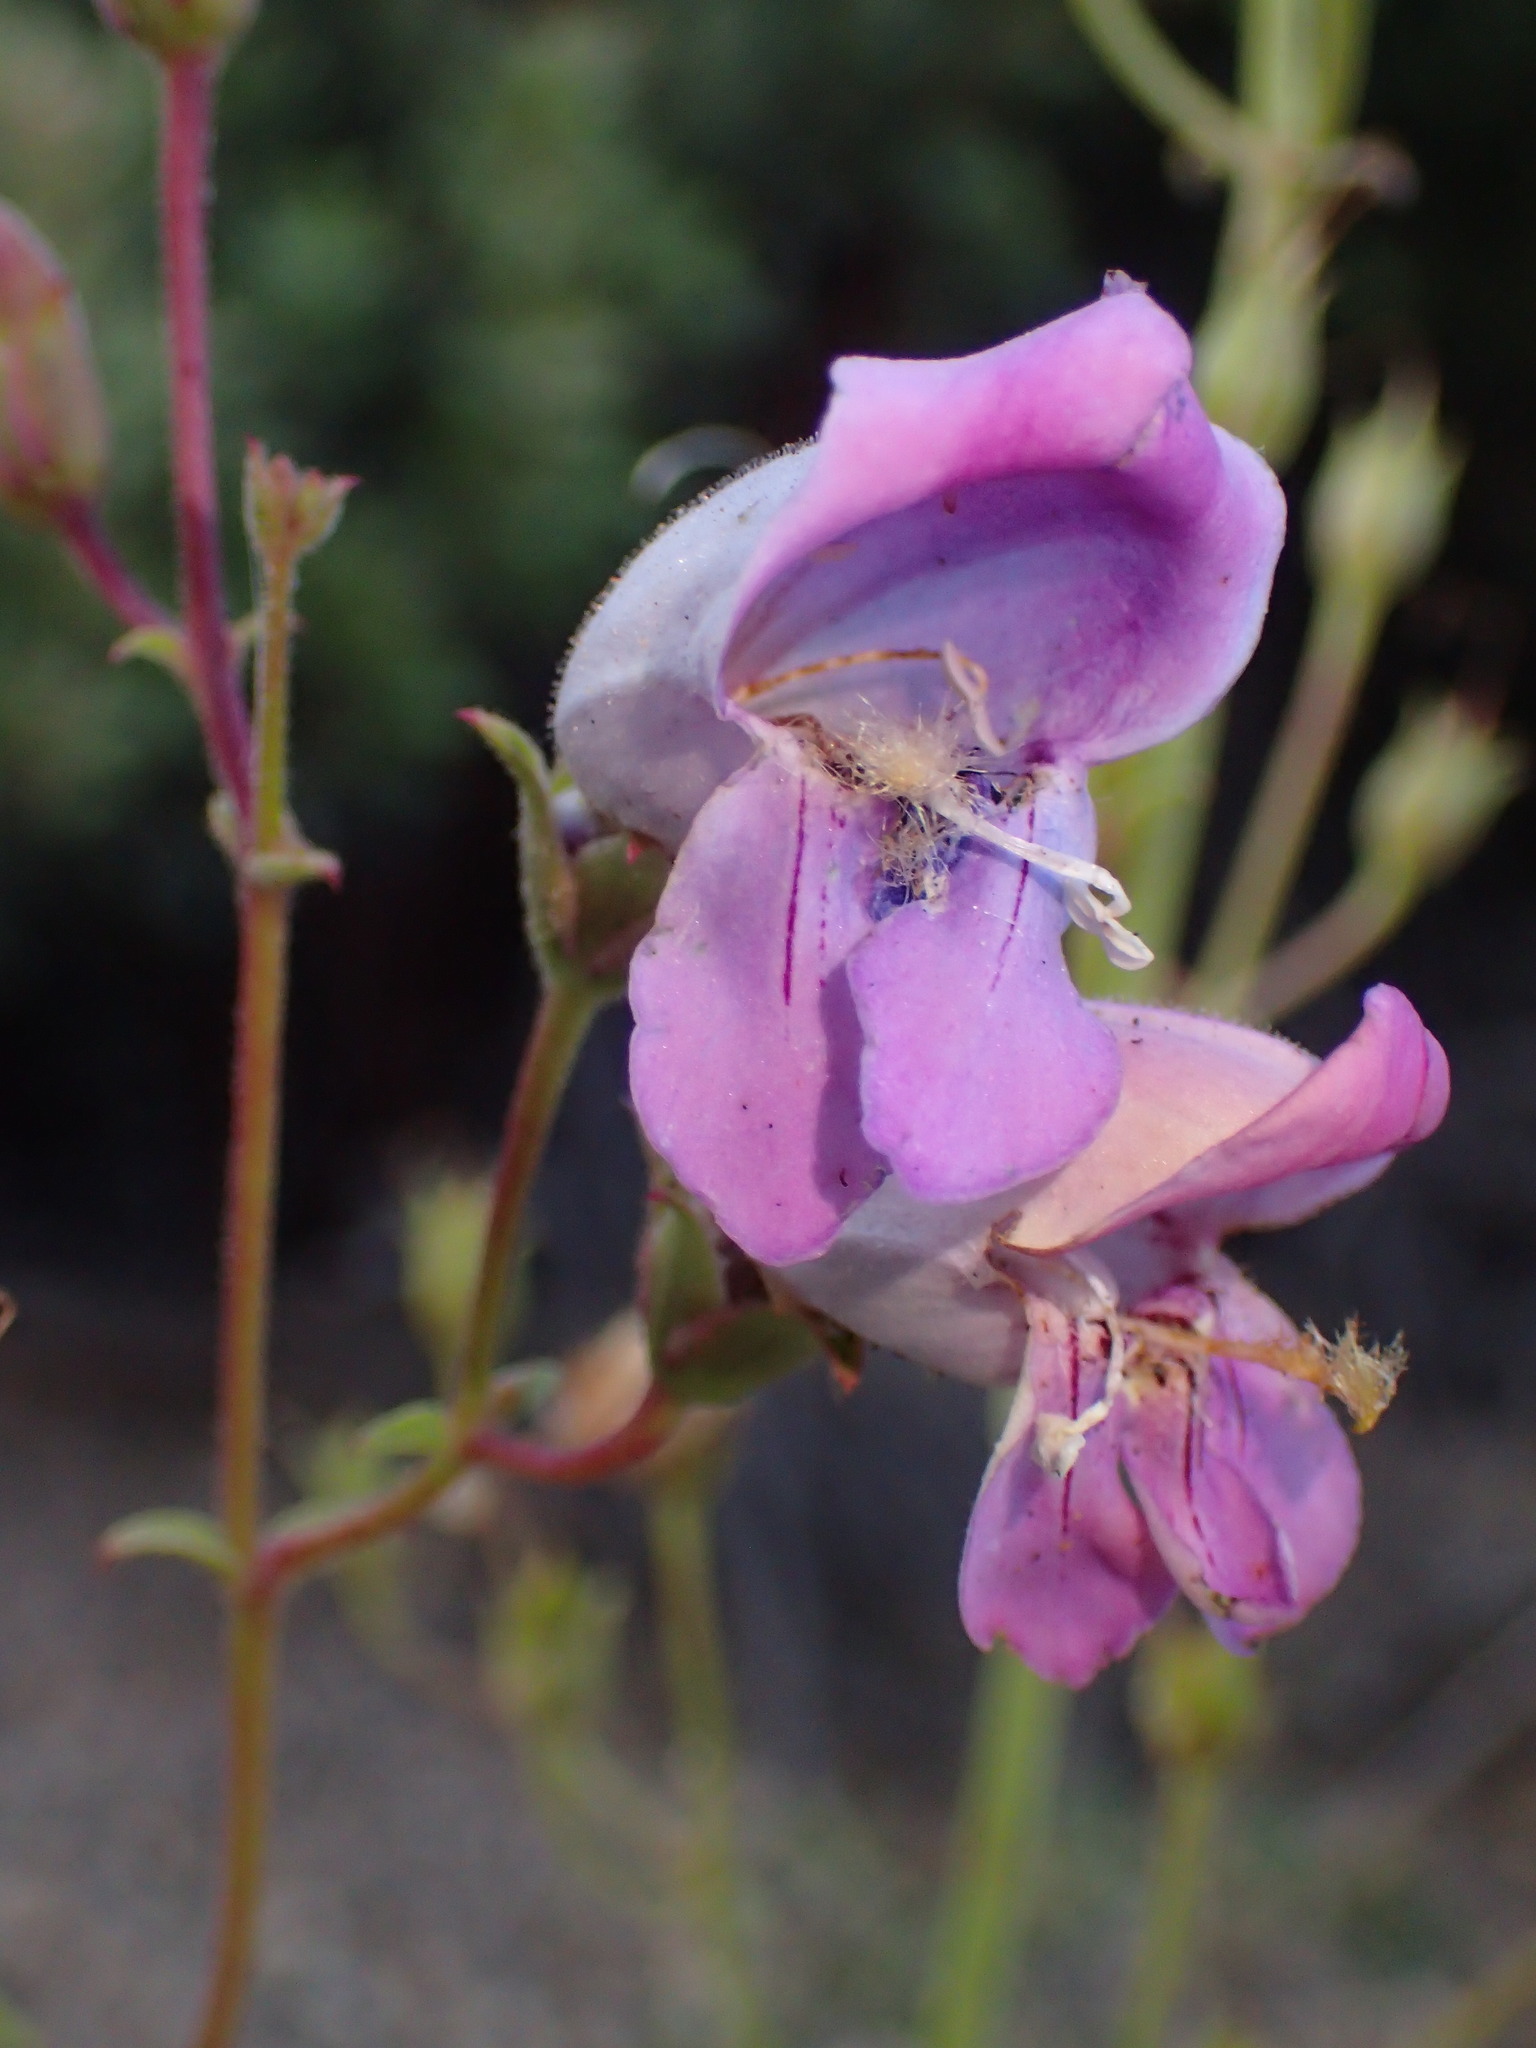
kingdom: Plantae
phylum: Tracheophyta
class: Magnoliopsida
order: Lamiales
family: Plantaginaceae
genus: Penstemon
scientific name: Penstemon grinnellii
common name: Grinnell's beardtongue
